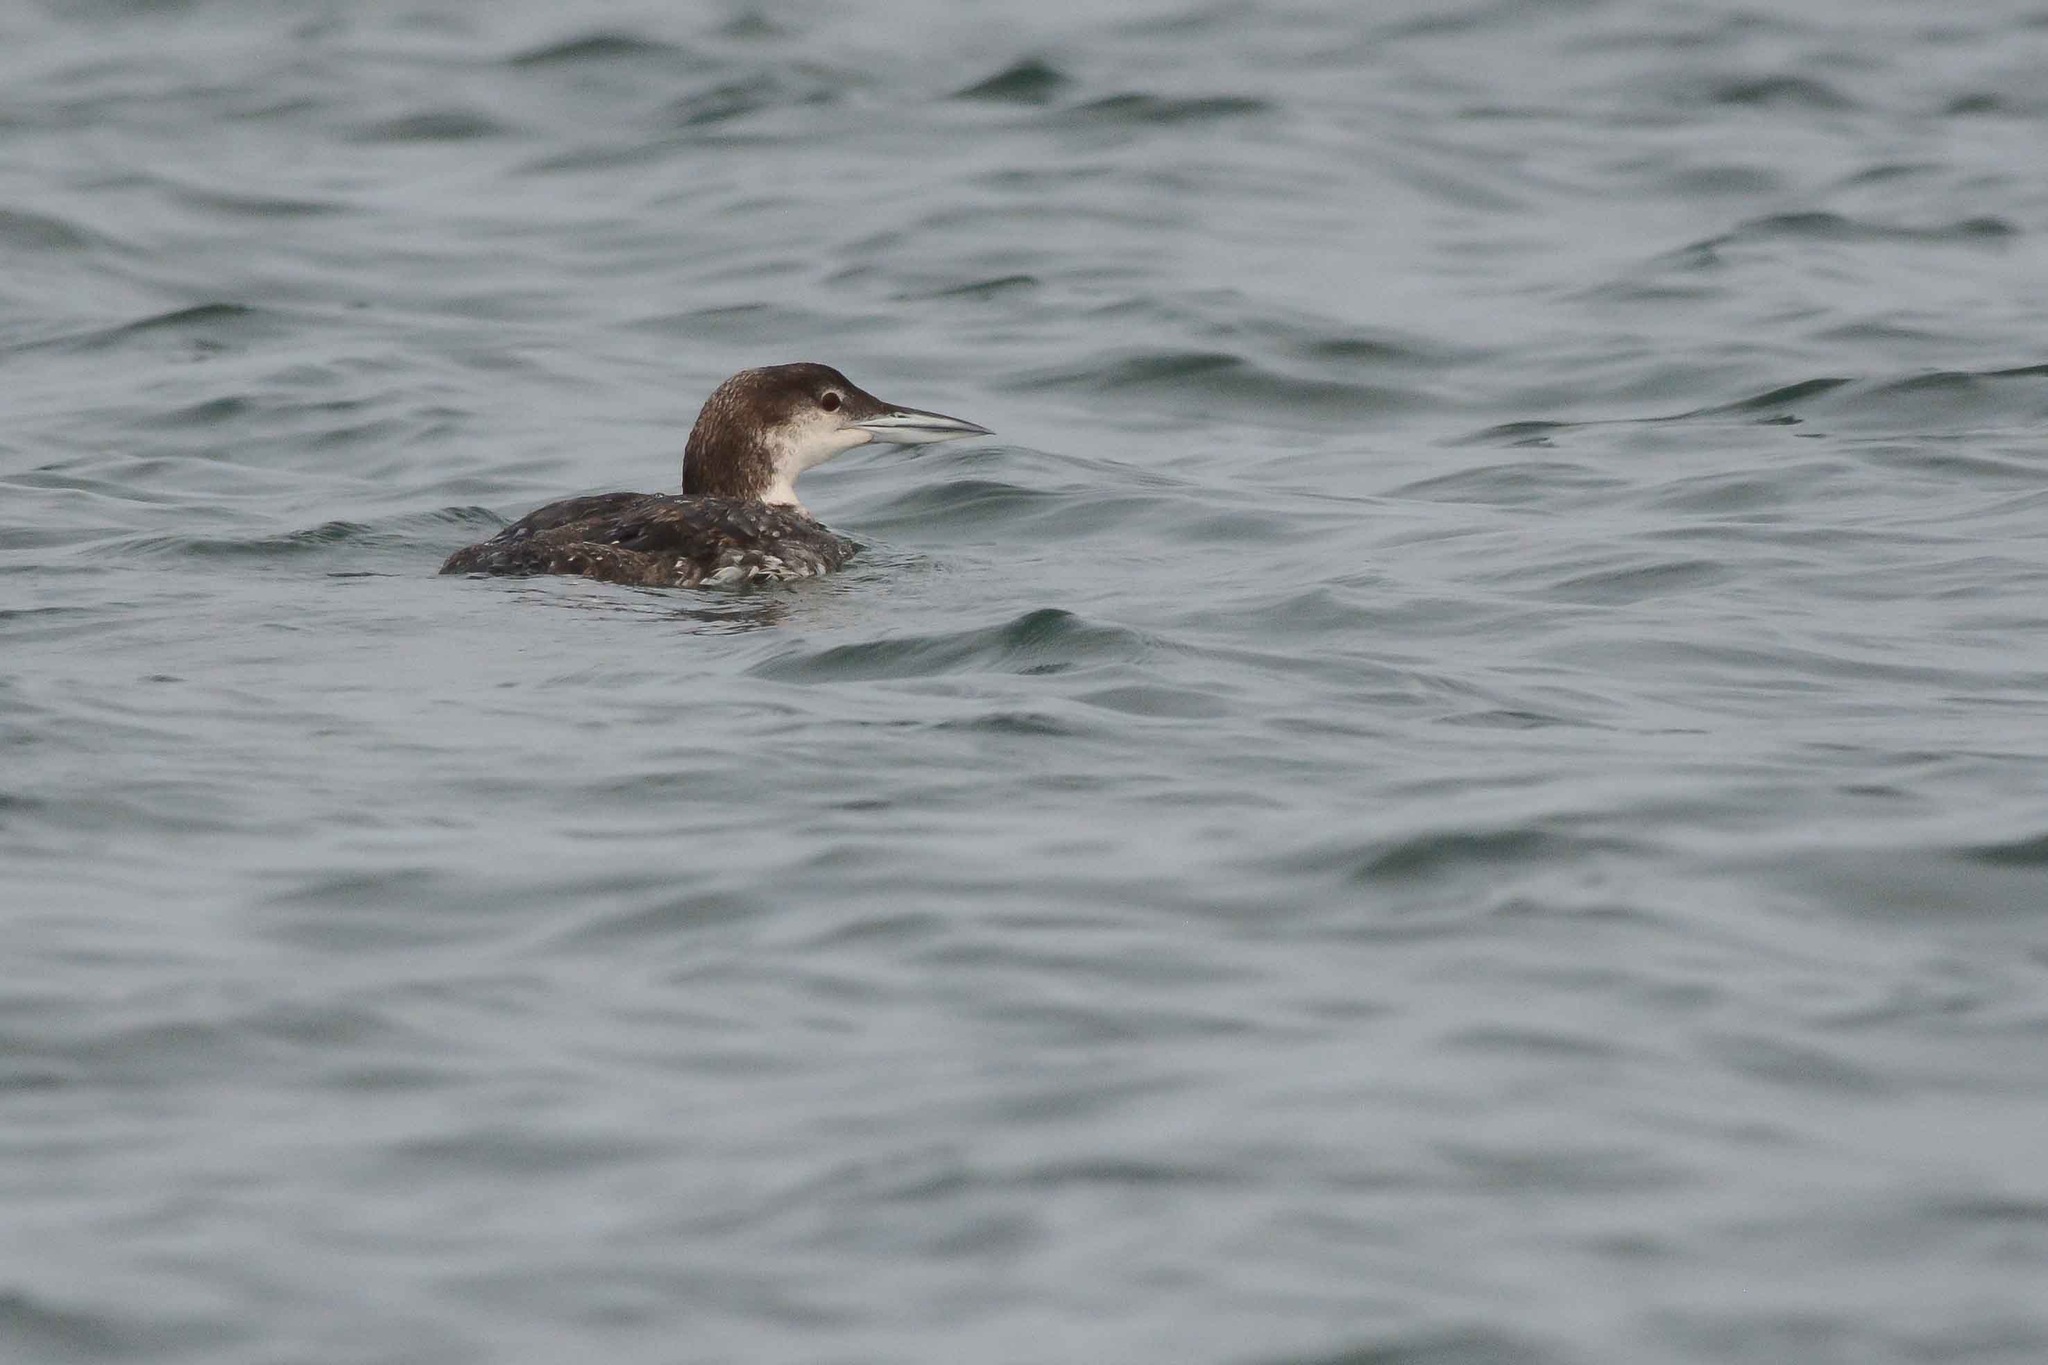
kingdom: Animalia
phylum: Chordata
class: Aves
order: Gaviiformes
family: Gaviidae
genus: Gavia
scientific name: Gavia immer
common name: Common loon
